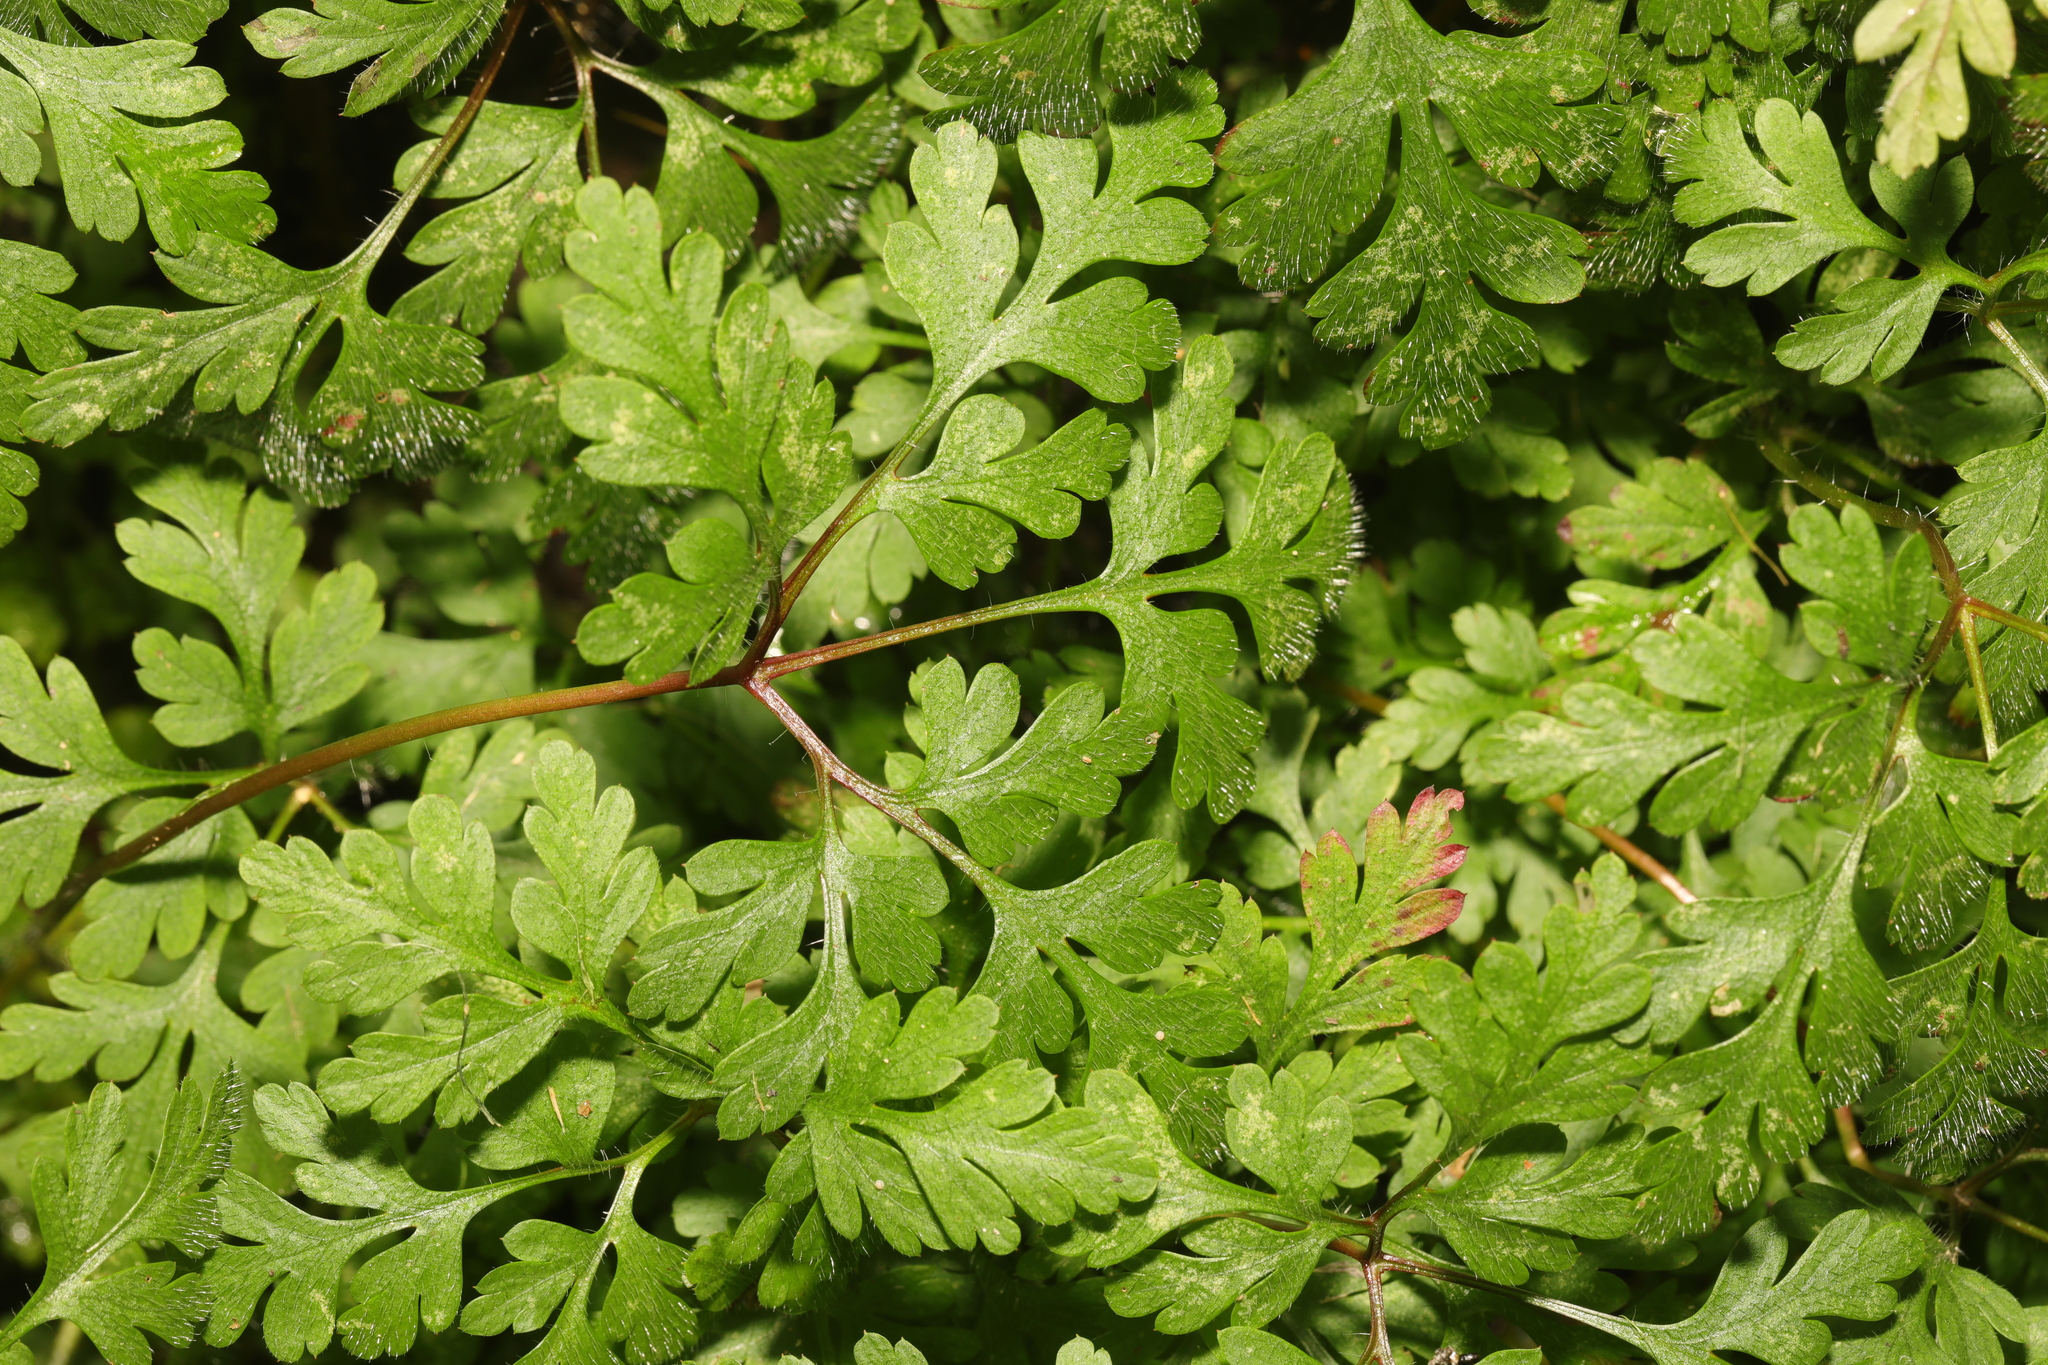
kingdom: Plantae
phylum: Tracheophyta
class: Magnoliopsida
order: Geraniales
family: Geraniaceae
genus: Geranium
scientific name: Geranium robertianum
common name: Herb-robert
